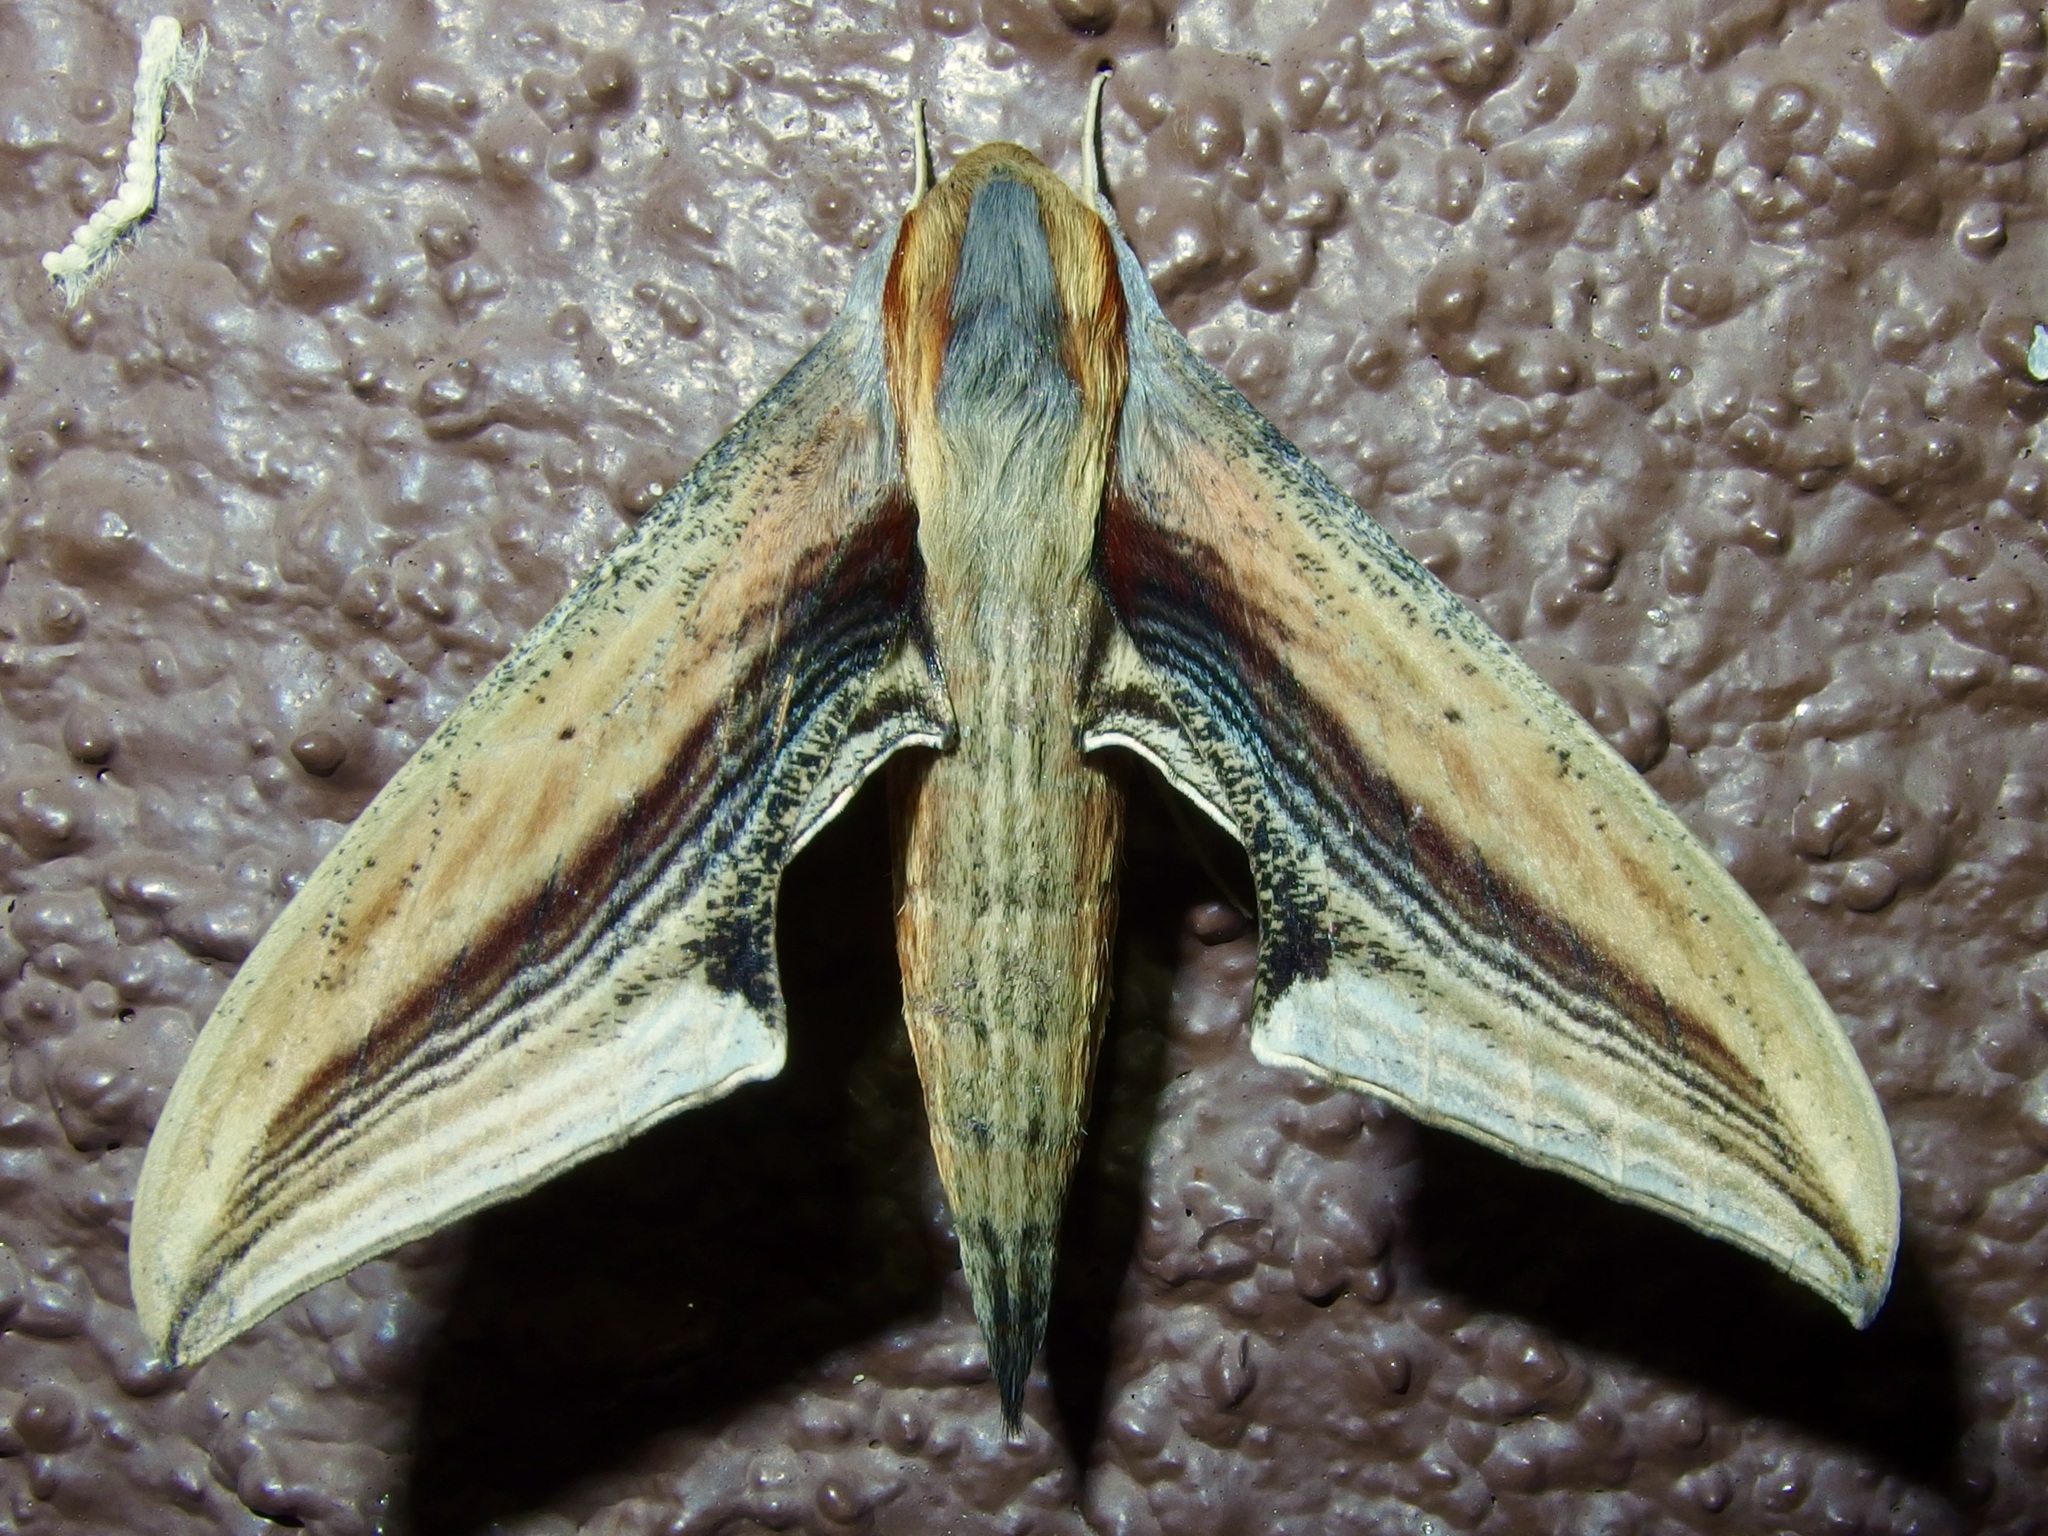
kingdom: Animalia
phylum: Arthropoda
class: Insecta
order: Lepidoptera
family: Sphingidae
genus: Xylophanes
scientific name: Xylophanes falco
